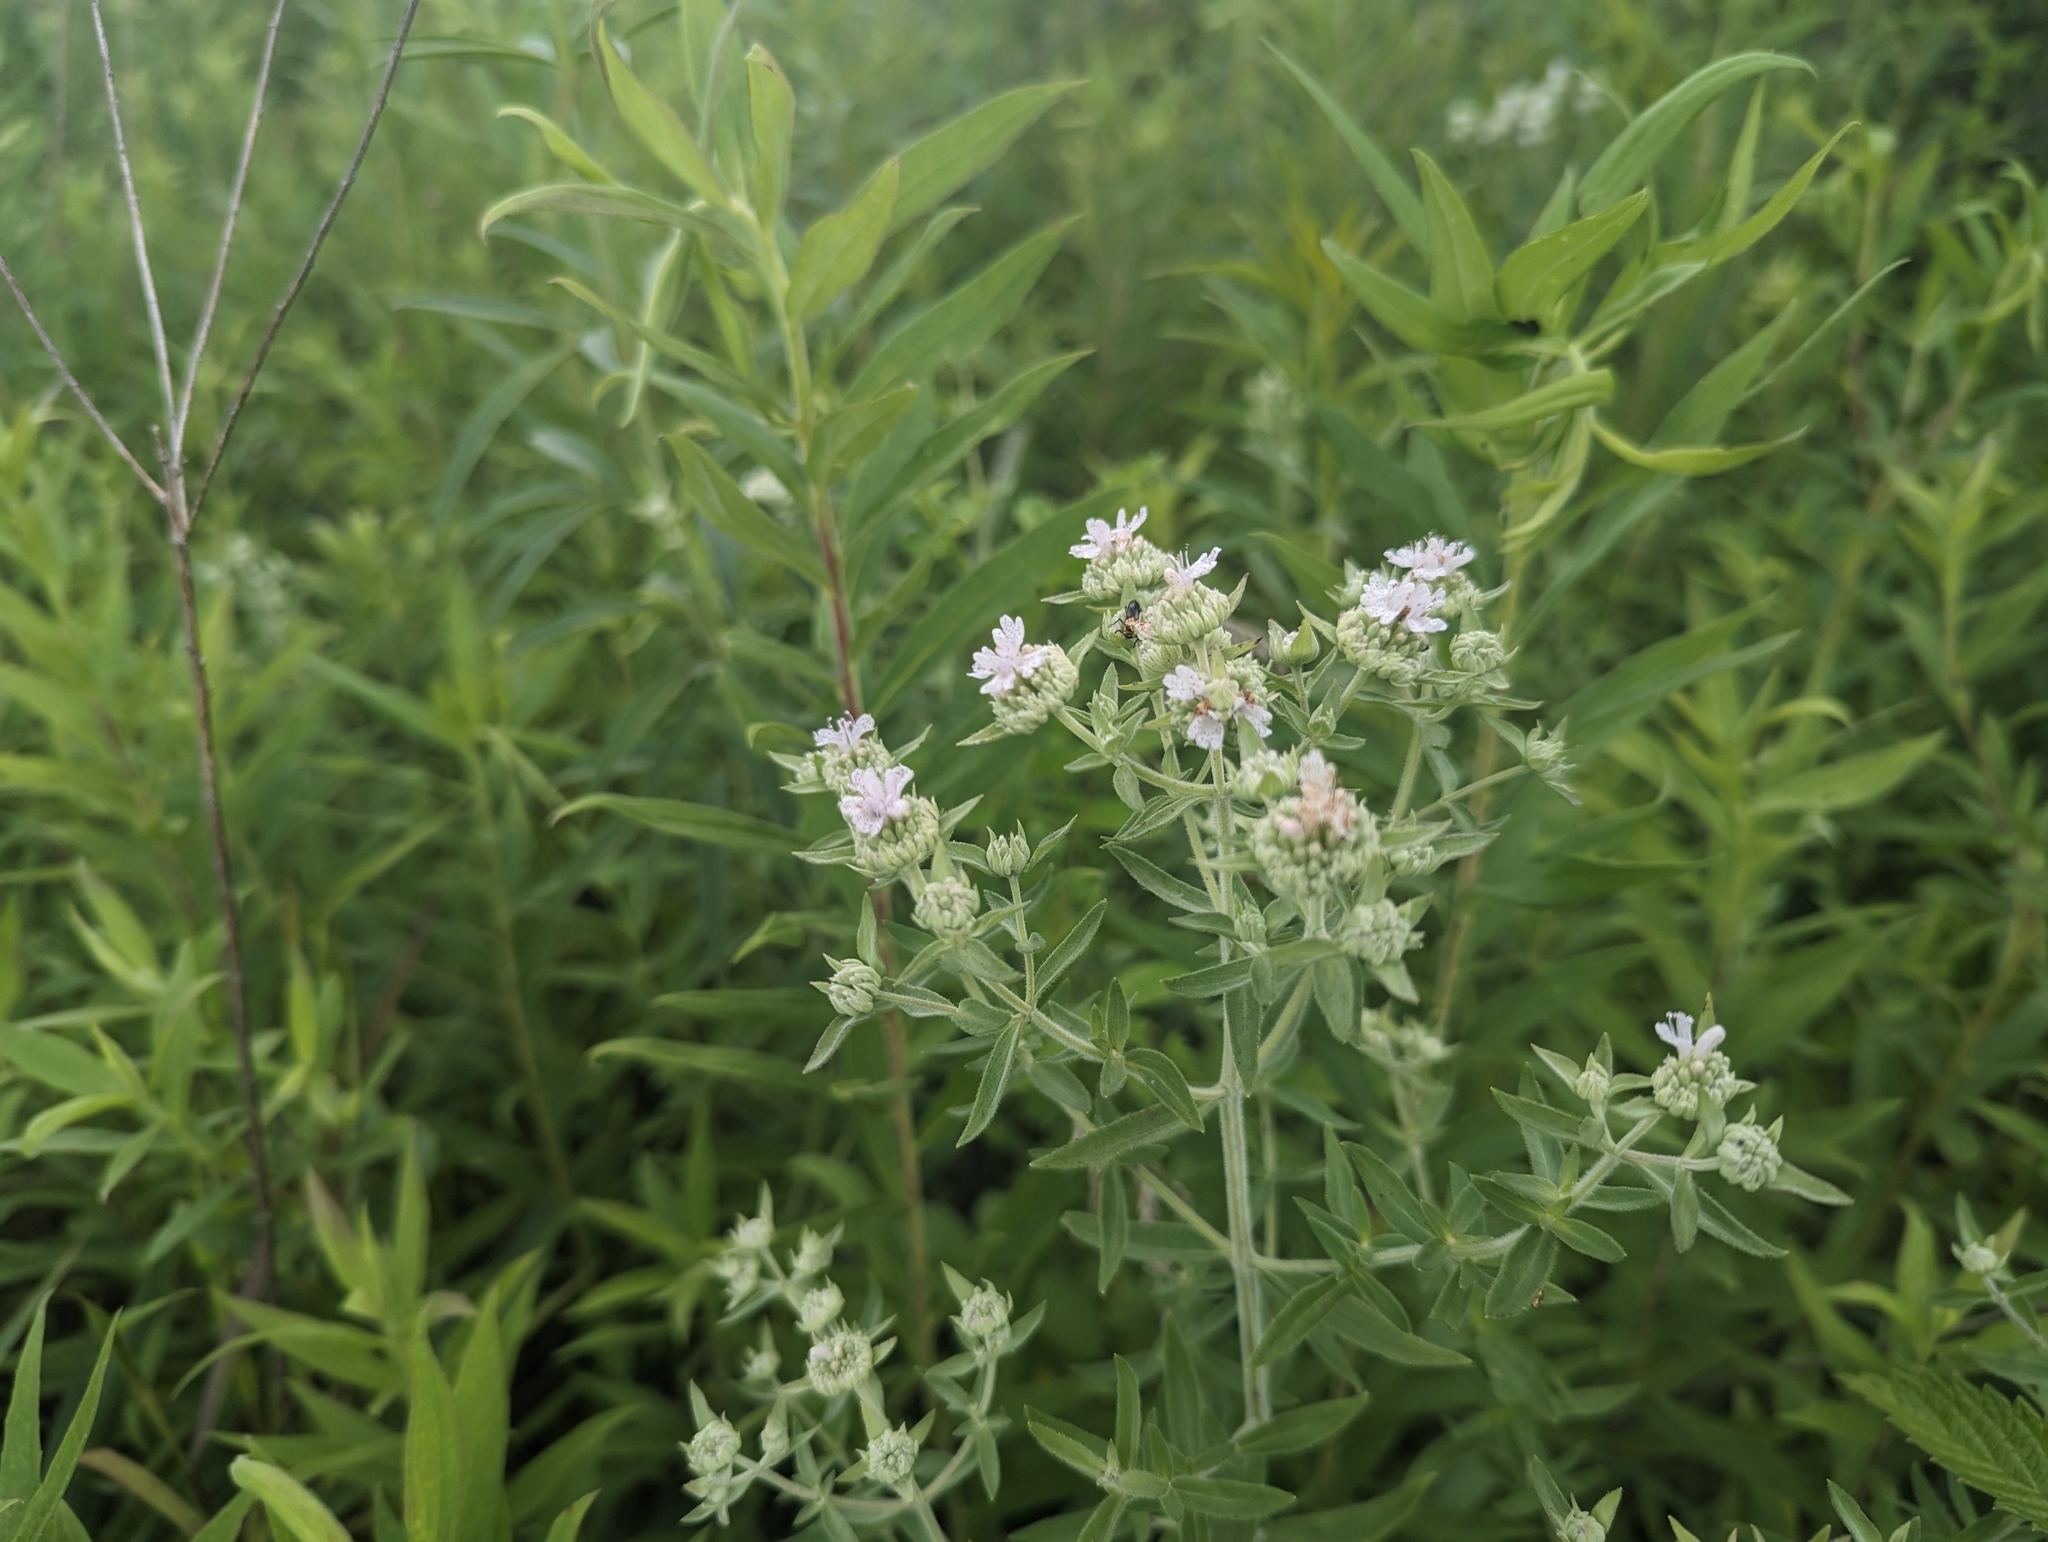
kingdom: Plantae
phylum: Tracheophyta
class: Magnoliopsida
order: Lamiales
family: Lamiaceae
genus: Pycnanthemum
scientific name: Pycnanthemum verticillatum
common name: Whorled mountain-mint
